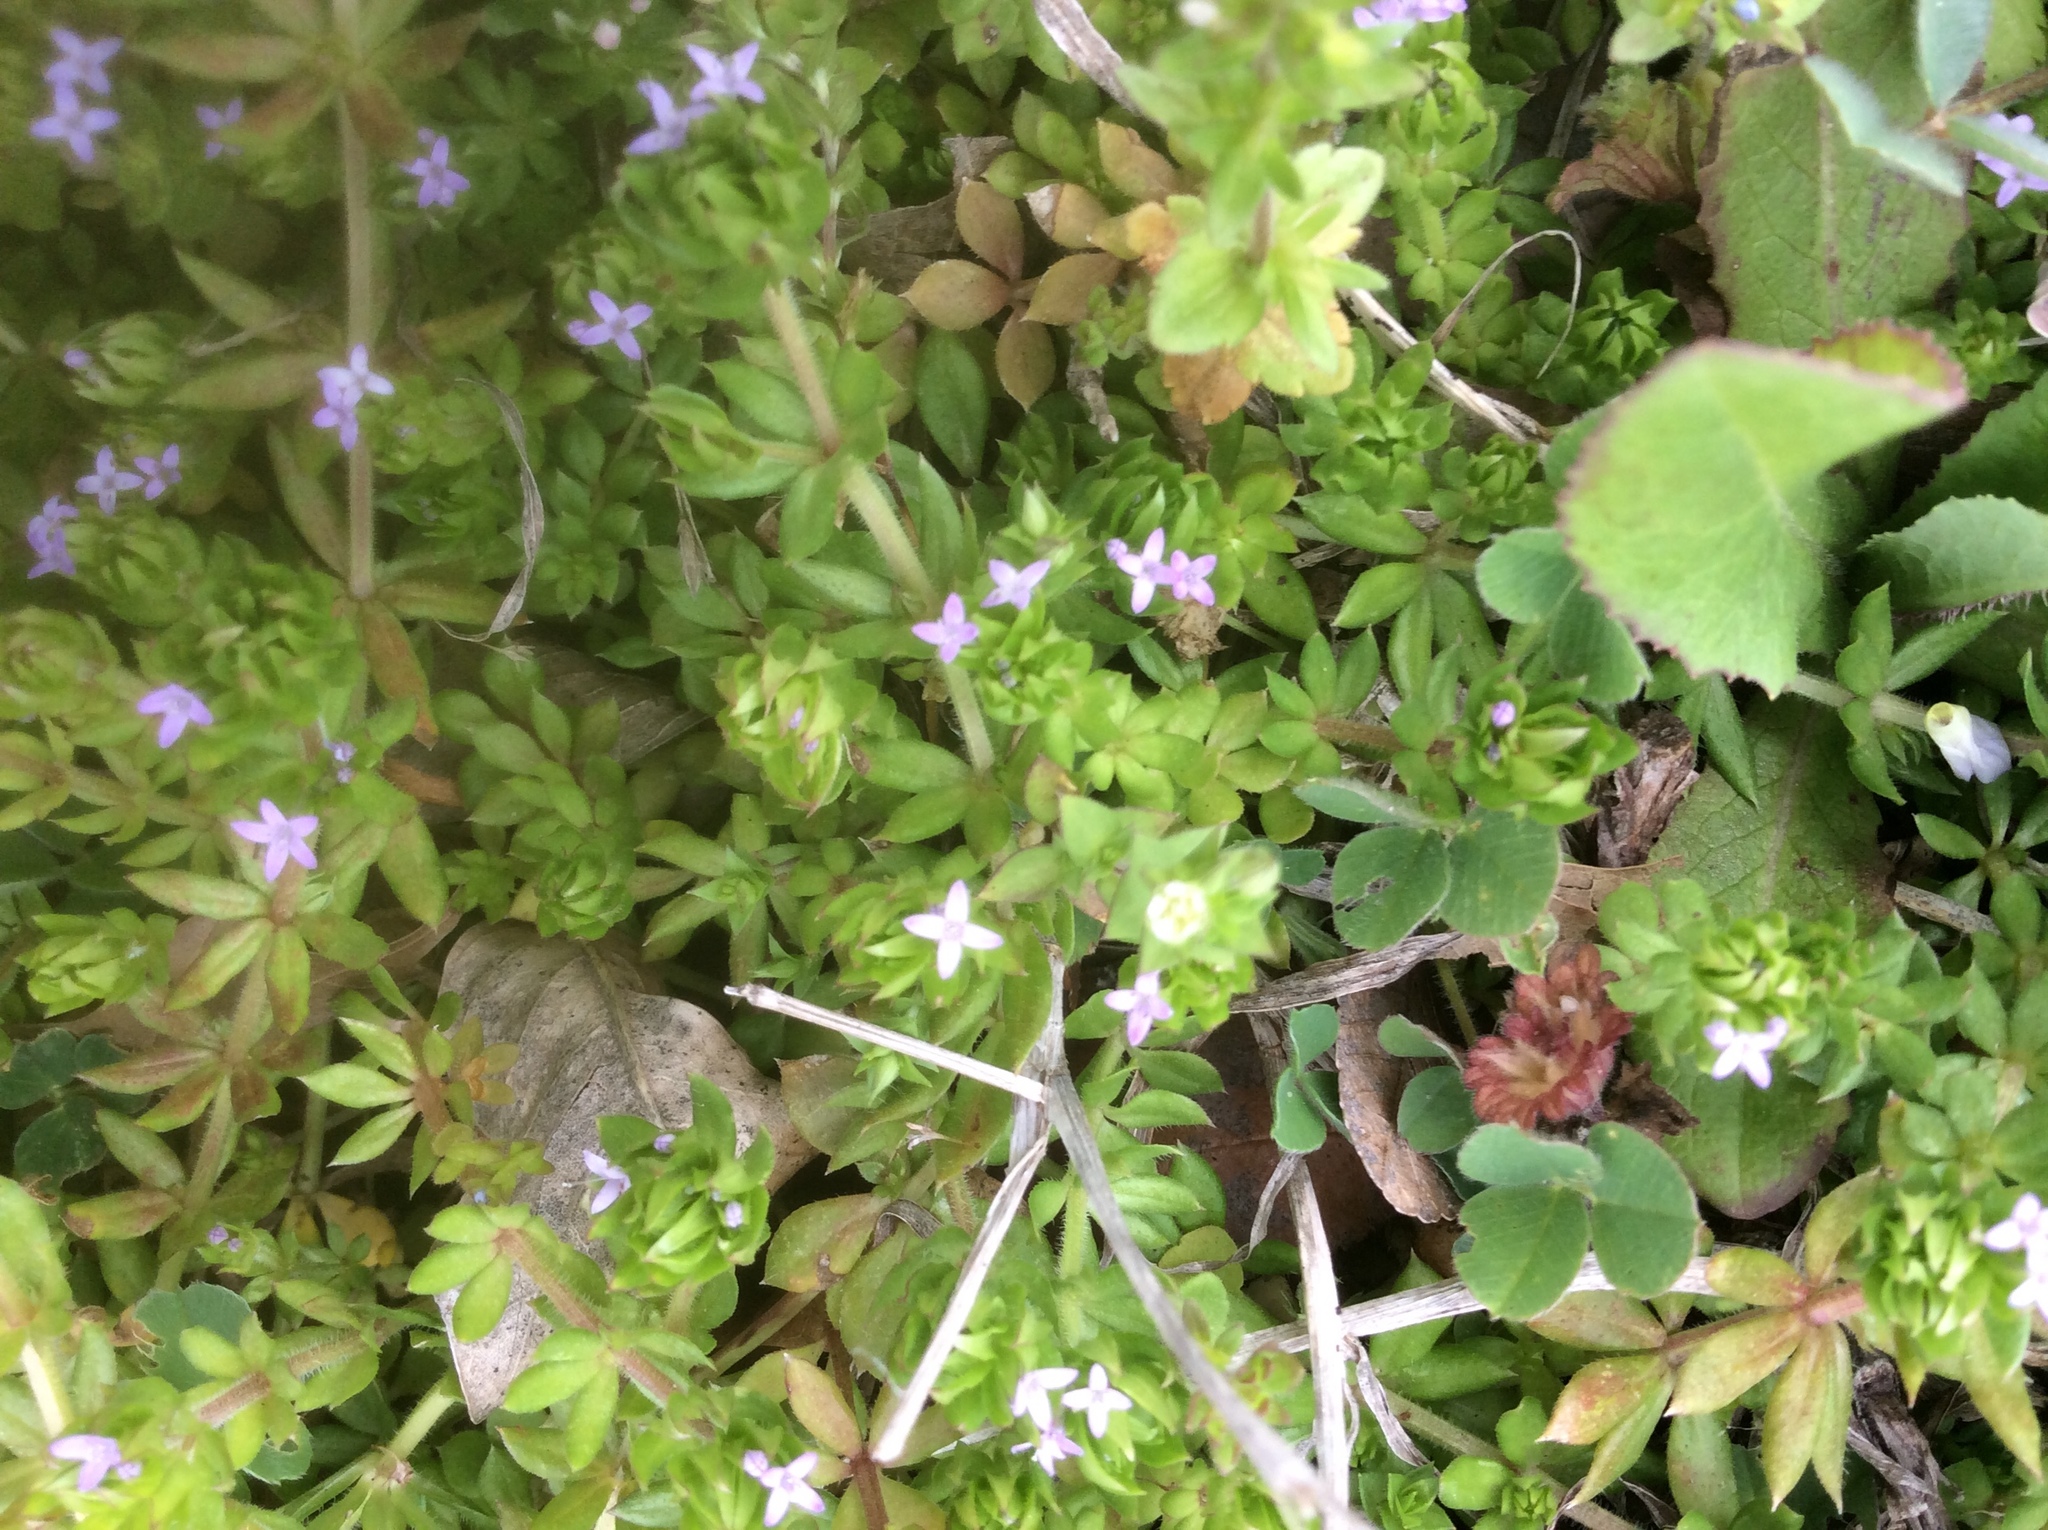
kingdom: Plantae
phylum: Tracheophyta
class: Magnoliopsida
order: Gentianales
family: Rubiaceae
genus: Sherardia
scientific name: Sherardia arvensis
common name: Field madder
